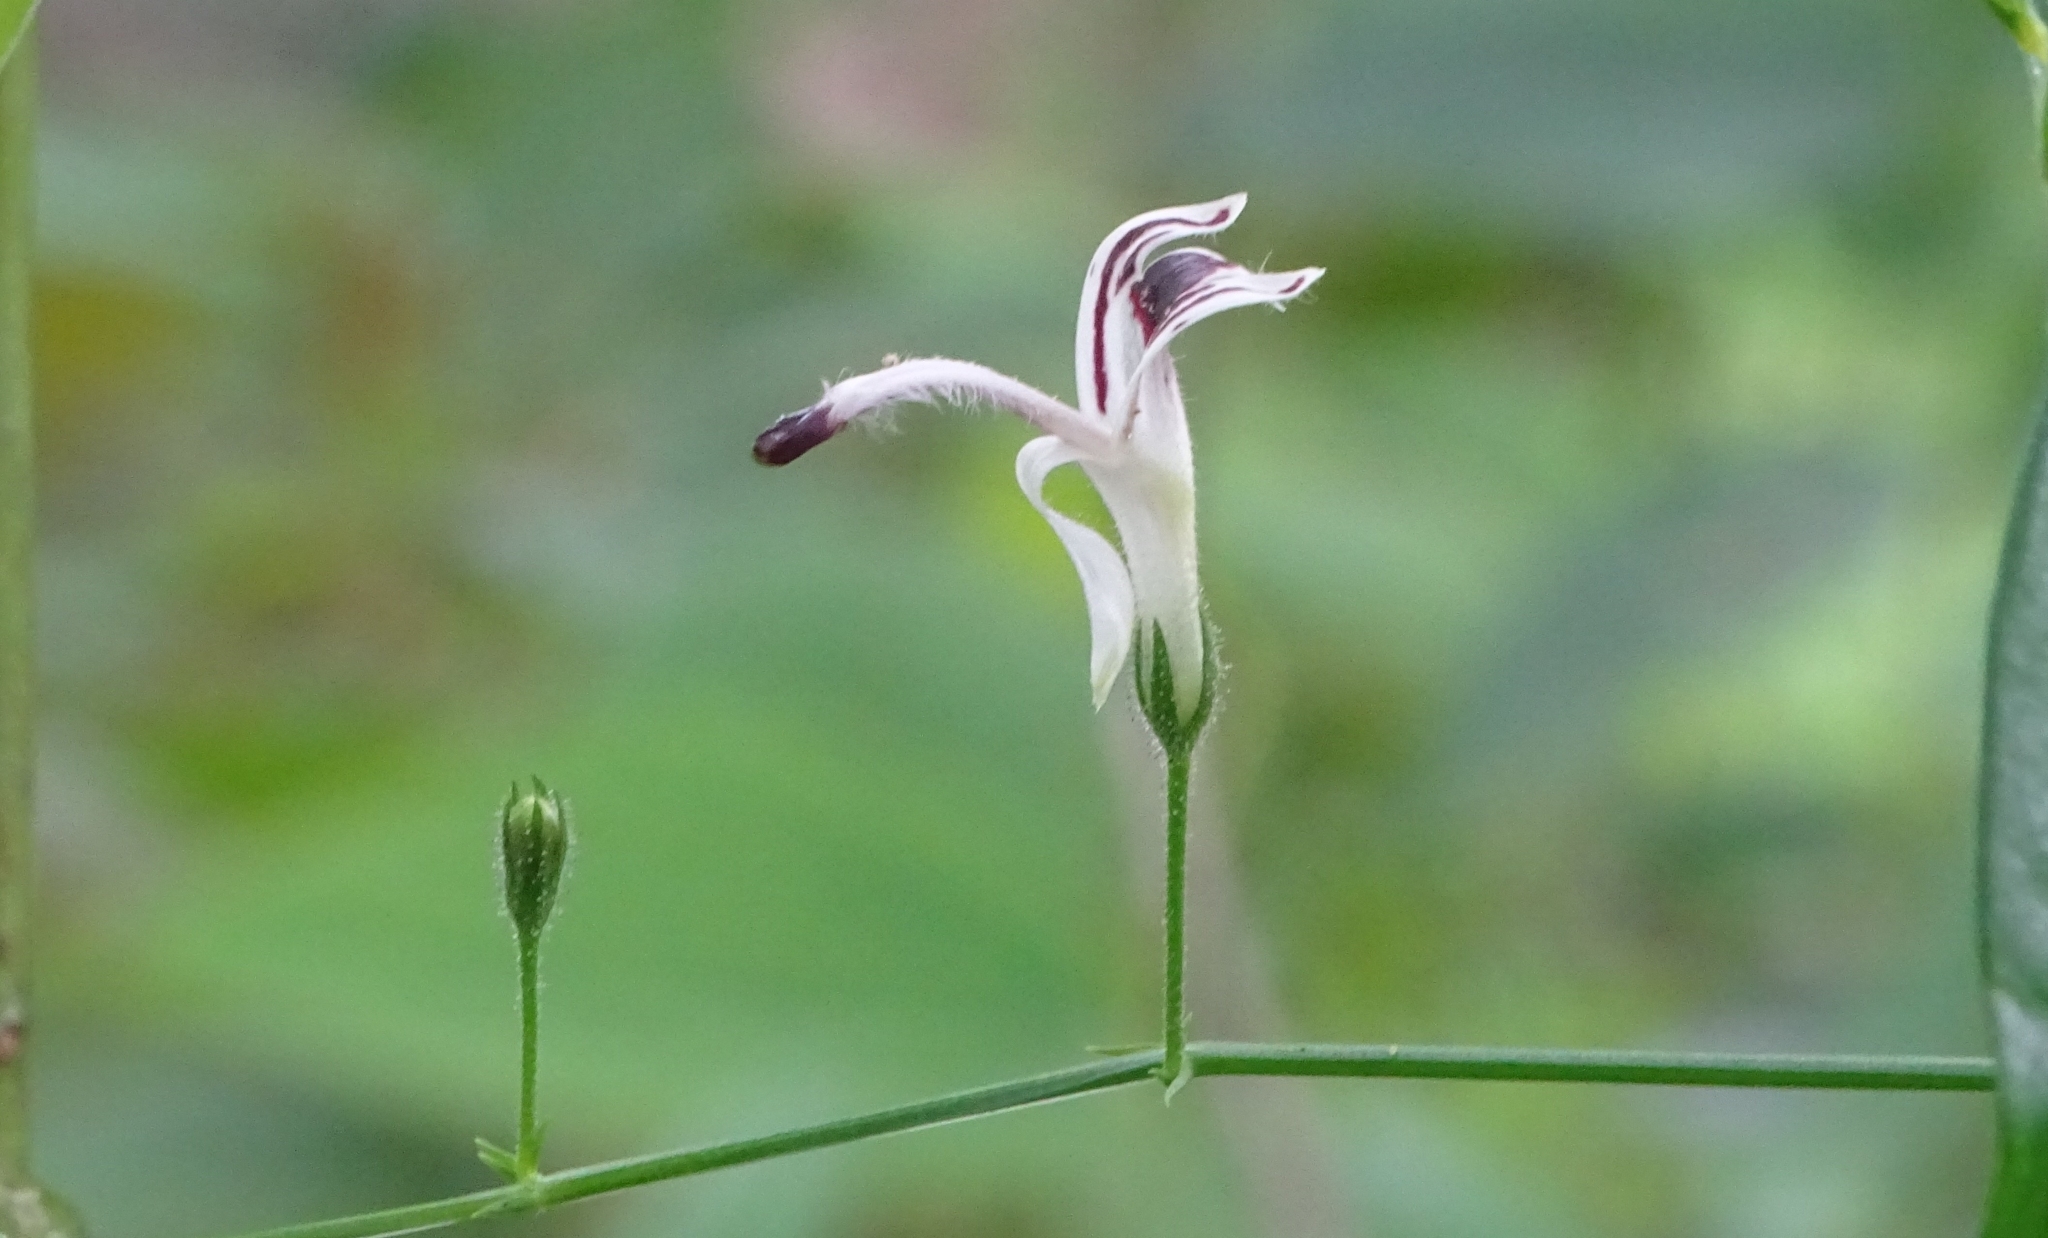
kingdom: Plantae
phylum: Tracheophyta
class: Magnoliopsida
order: Lamiales
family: Acanthaceae
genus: Andrographis
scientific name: Andrographis paniculata
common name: Green chireta
